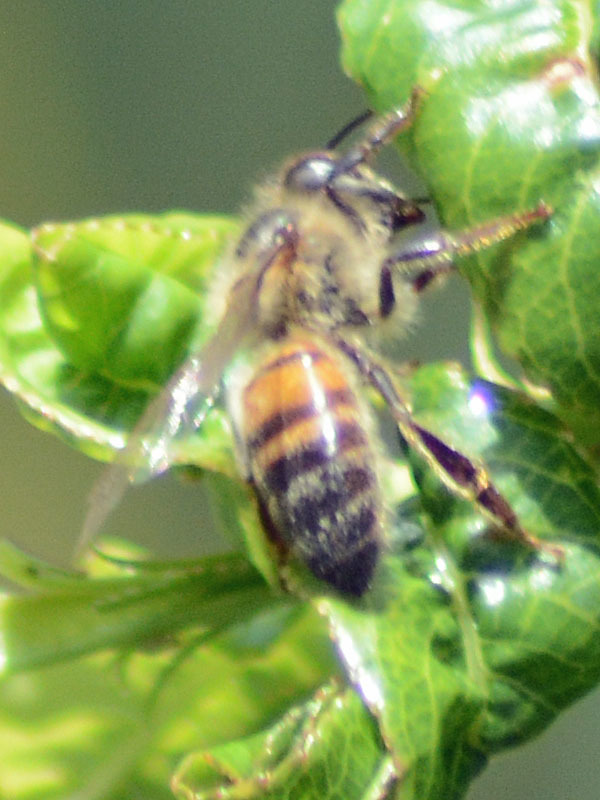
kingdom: Animalia
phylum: Arthropoda
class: Insecta
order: Hymenoptera
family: Apidae
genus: Apis
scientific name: Apis mellifera
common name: Honey bee
